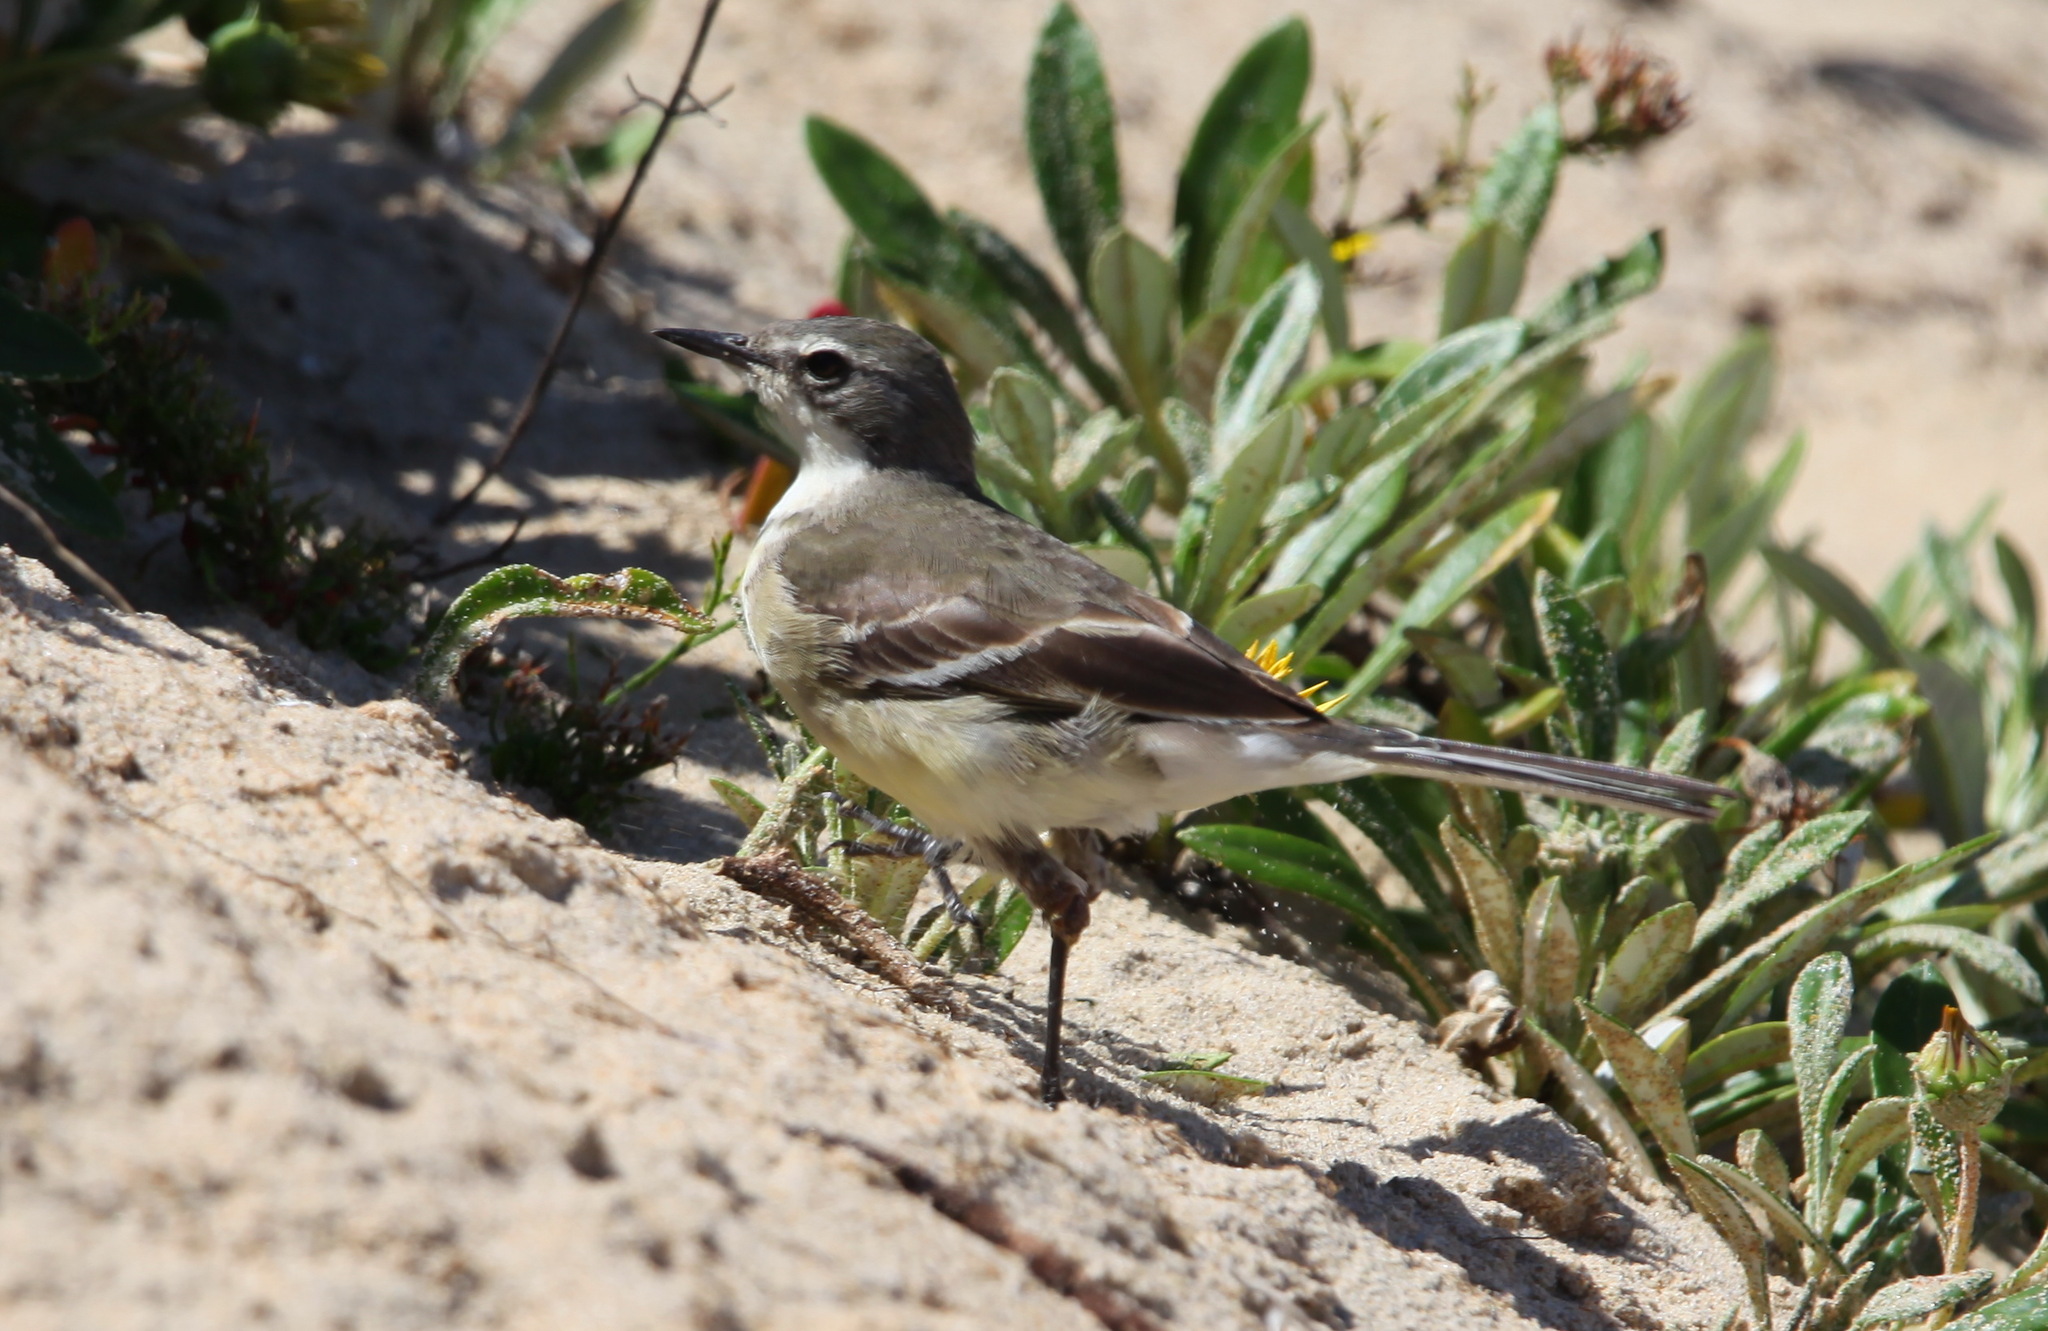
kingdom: Animalia
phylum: Chordata
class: Aves
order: Passeriformes
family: Motacillidae
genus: Motacilla
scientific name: Motacilla capensis
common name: Cape wagtail
